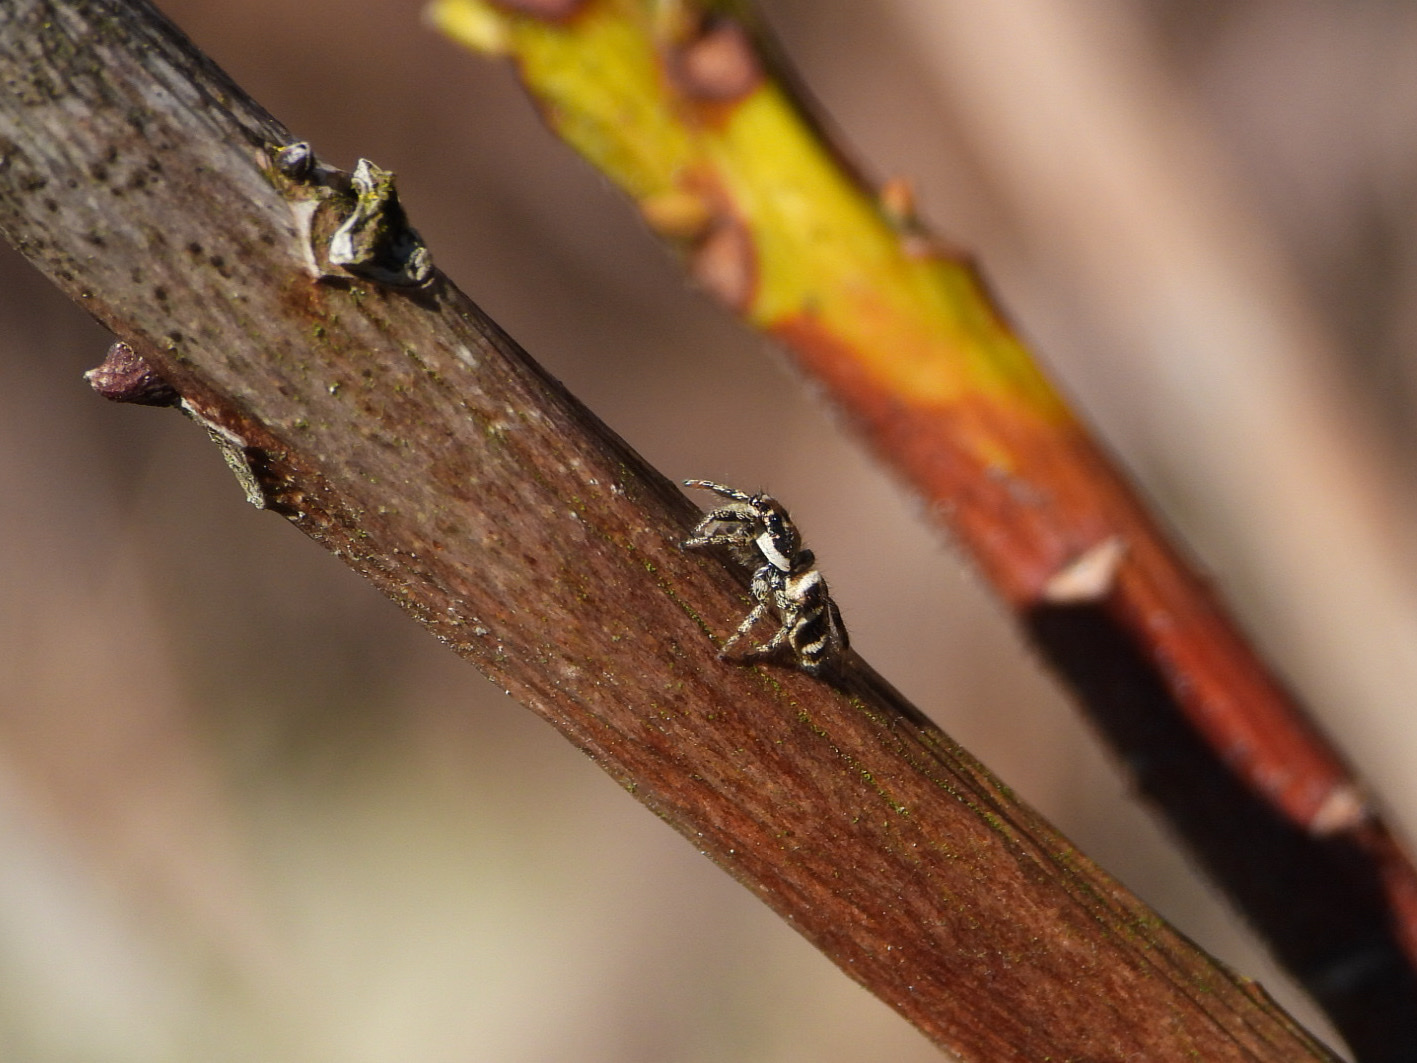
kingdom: Animalia
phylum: Arthropoda
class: Arachnida
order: Araneae
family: Salticidae
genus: Salticus
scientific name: Salticus scenicus
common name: Zebra jumper
